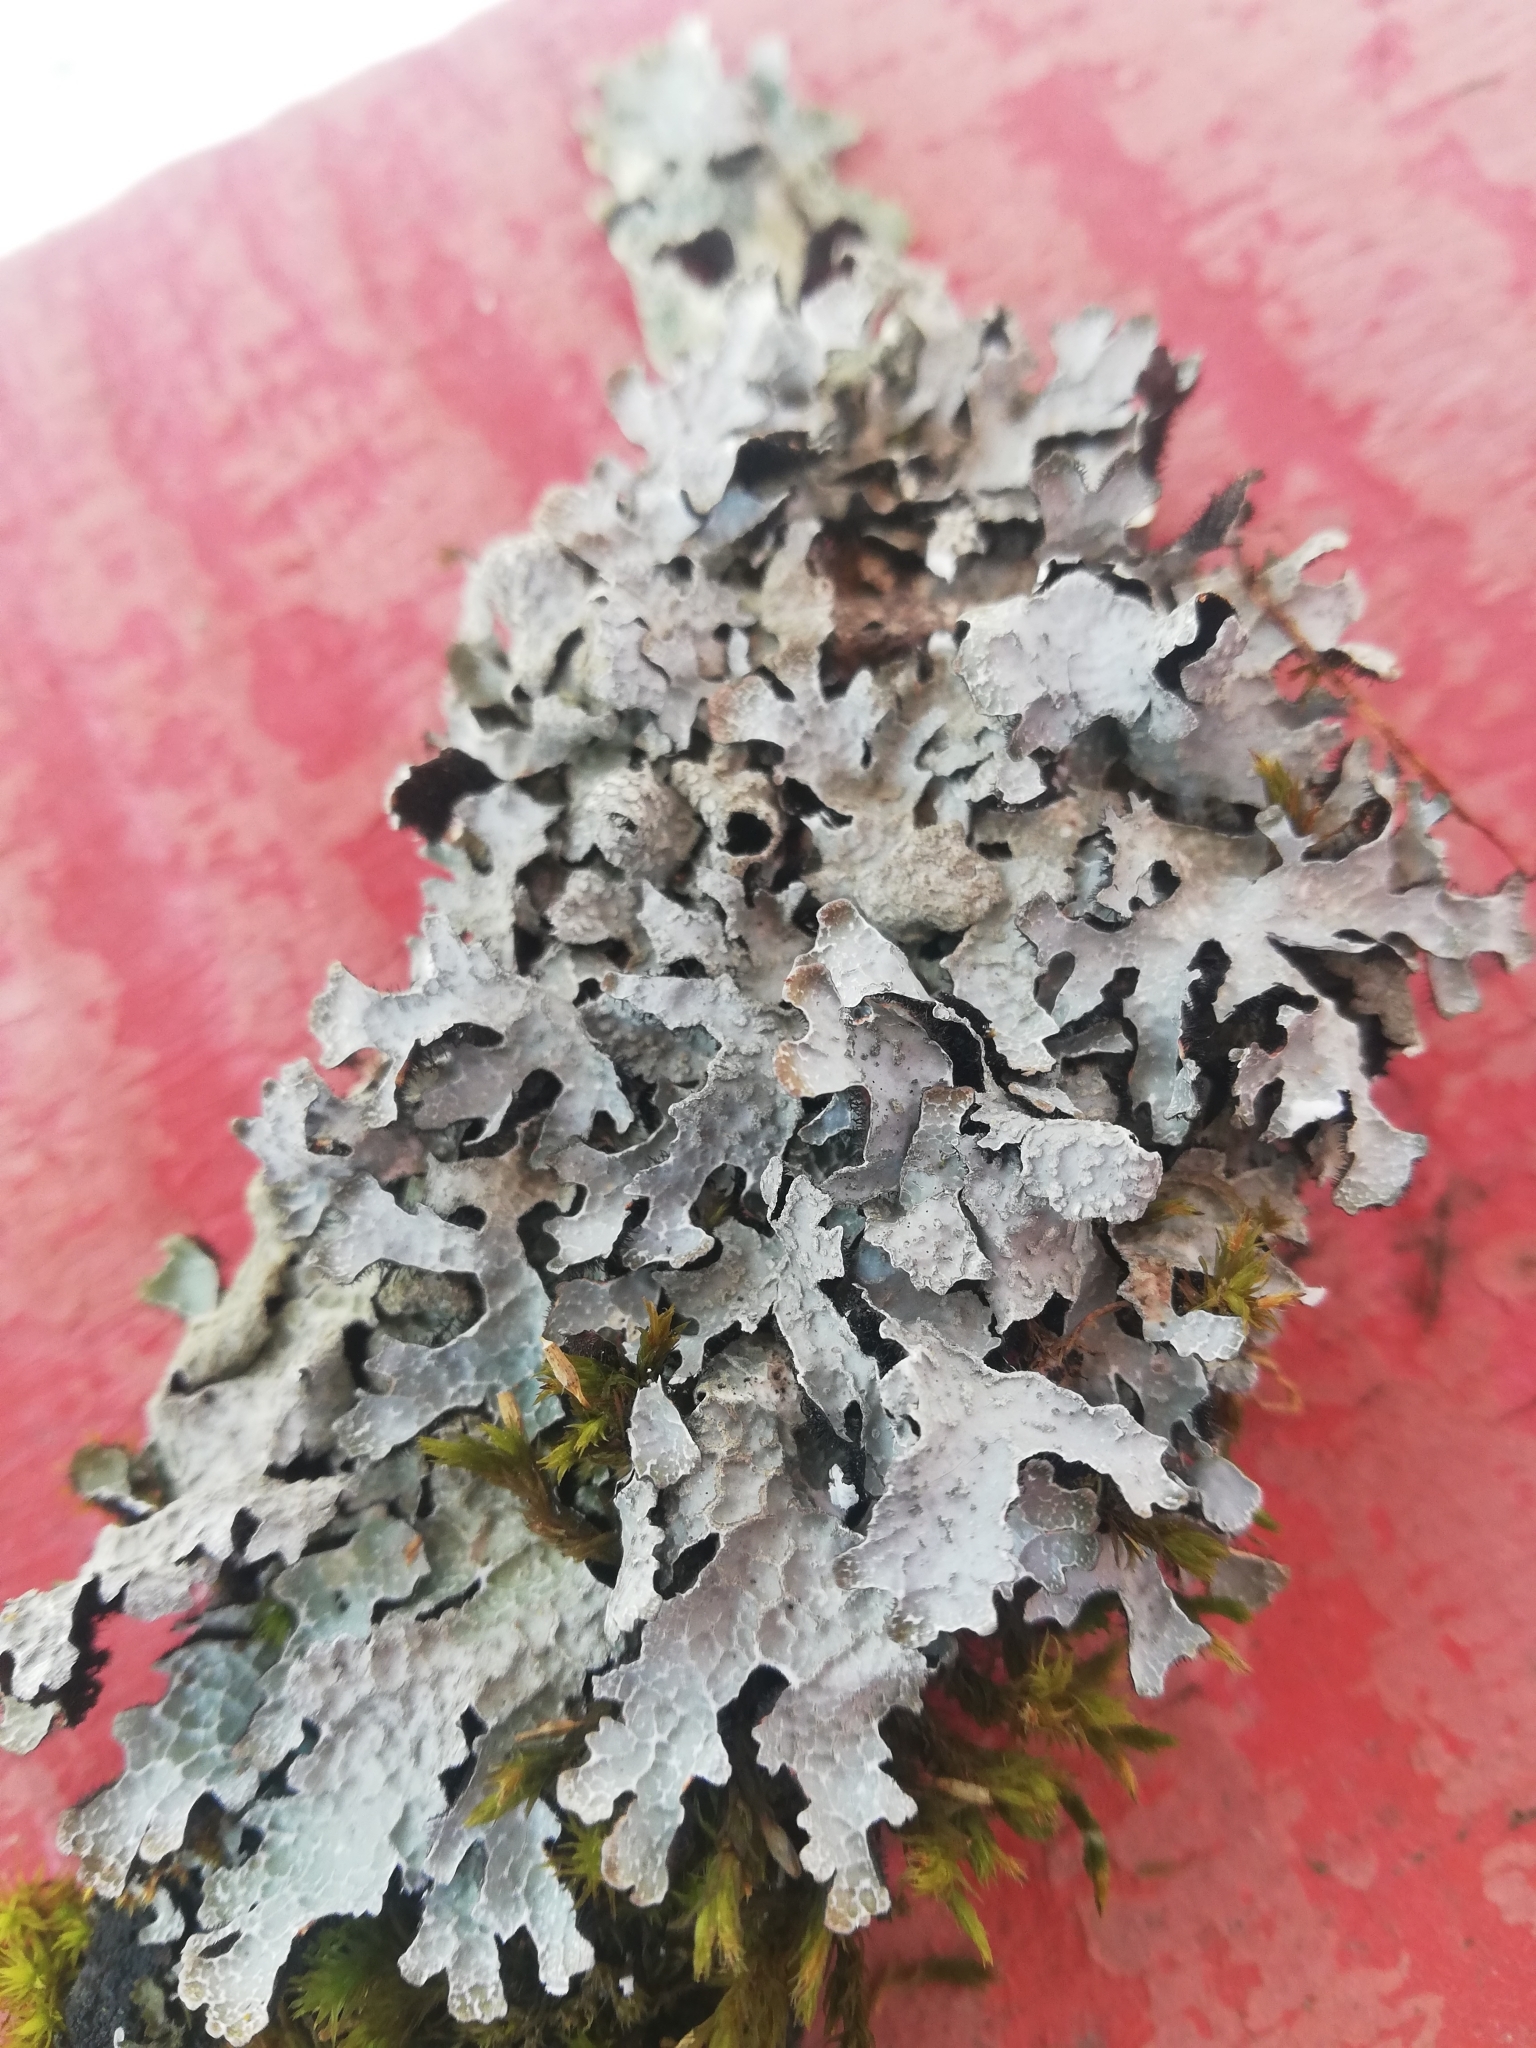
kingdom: Fungi
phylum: Ascomycota
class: Lecanoromycetes
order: Lecanorales
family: Parmeliaceae
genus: Parmelia
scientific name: Parmelia sulcata
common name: Netted shield lichen
